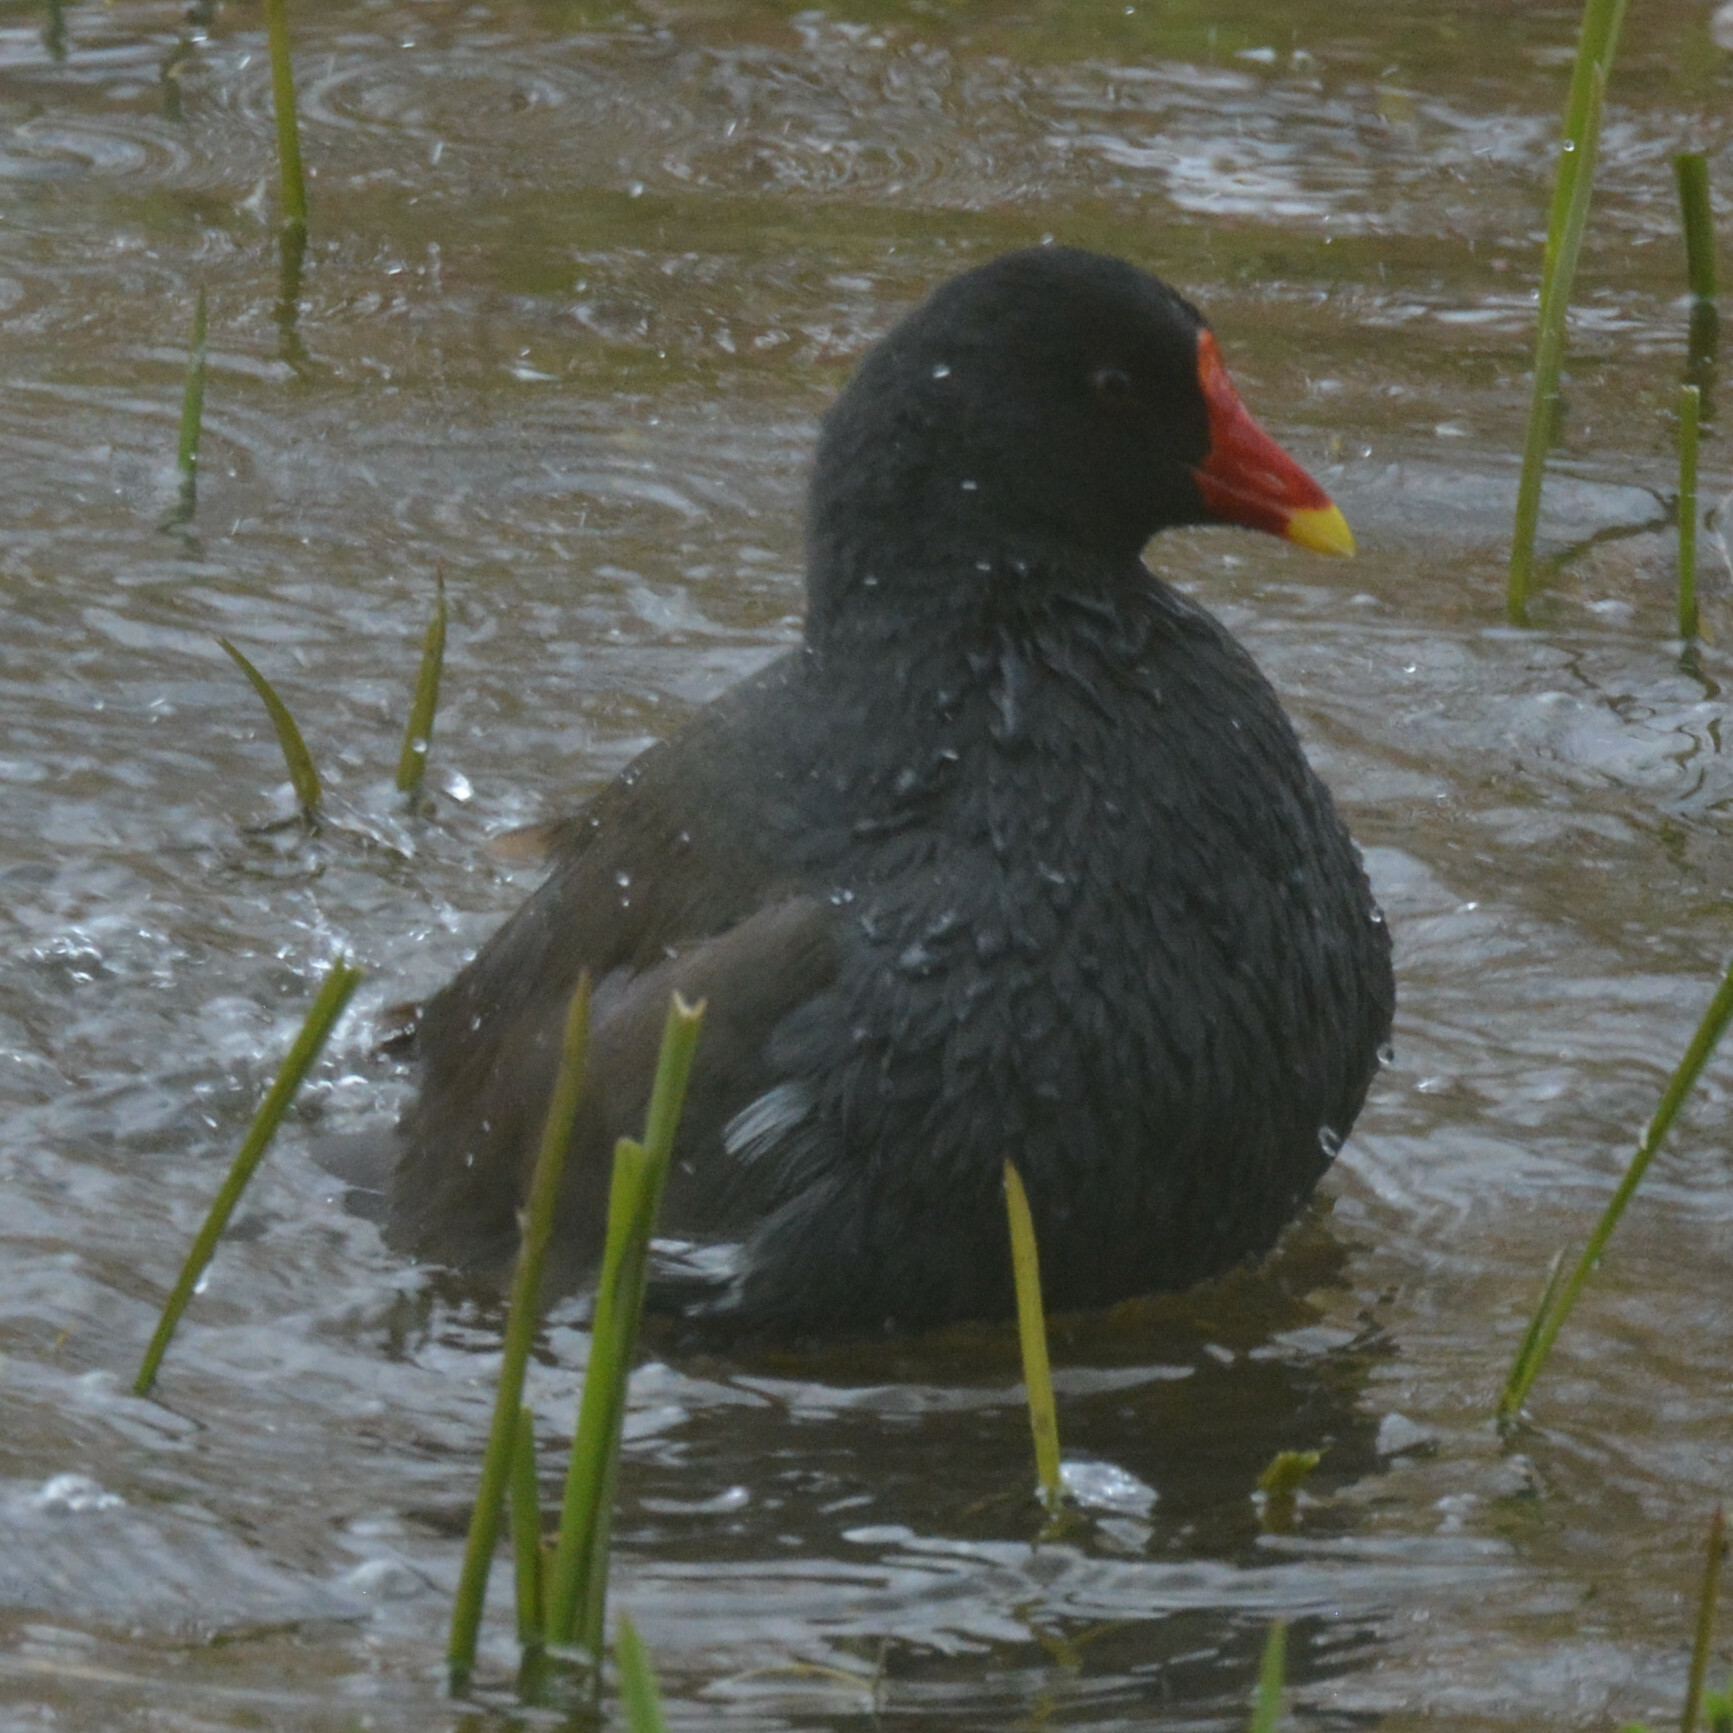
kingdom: Animalia
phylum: Chordata
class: Aves
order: Gruiformes
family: Rallidae
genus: Gallinula
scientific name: Gallinula chloropus
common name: Common moorhen
